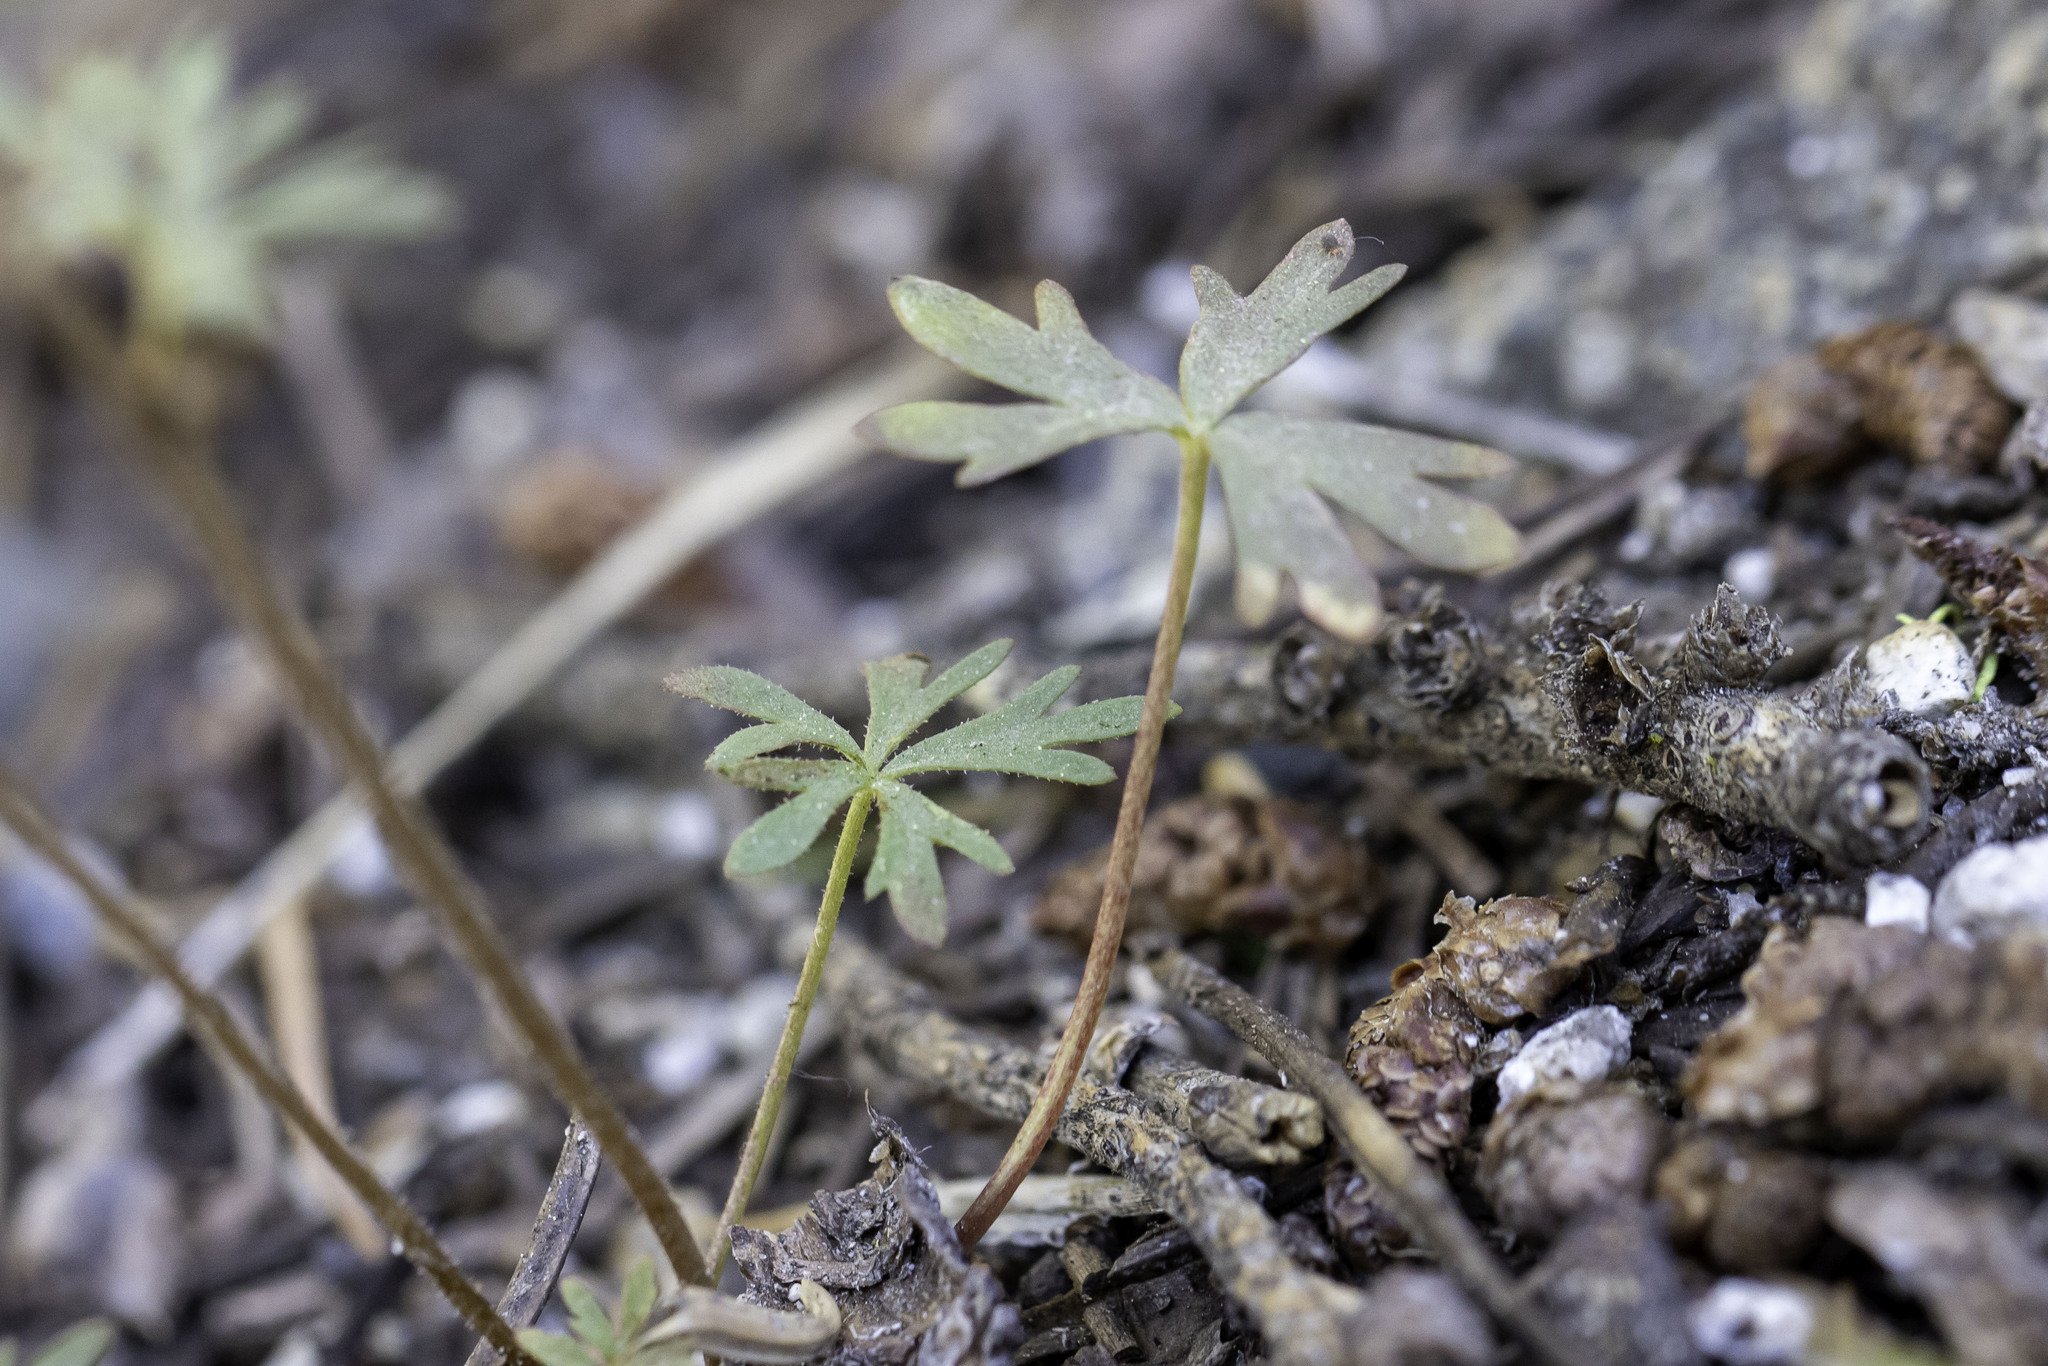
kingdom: Plantae
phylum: Tracheophyta
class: Magnoliopsida
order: Saxifragales
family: Saxifragaceae
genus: Lithophragma
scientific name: Lithophragma glabrum
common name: Bulbous prairie-star
